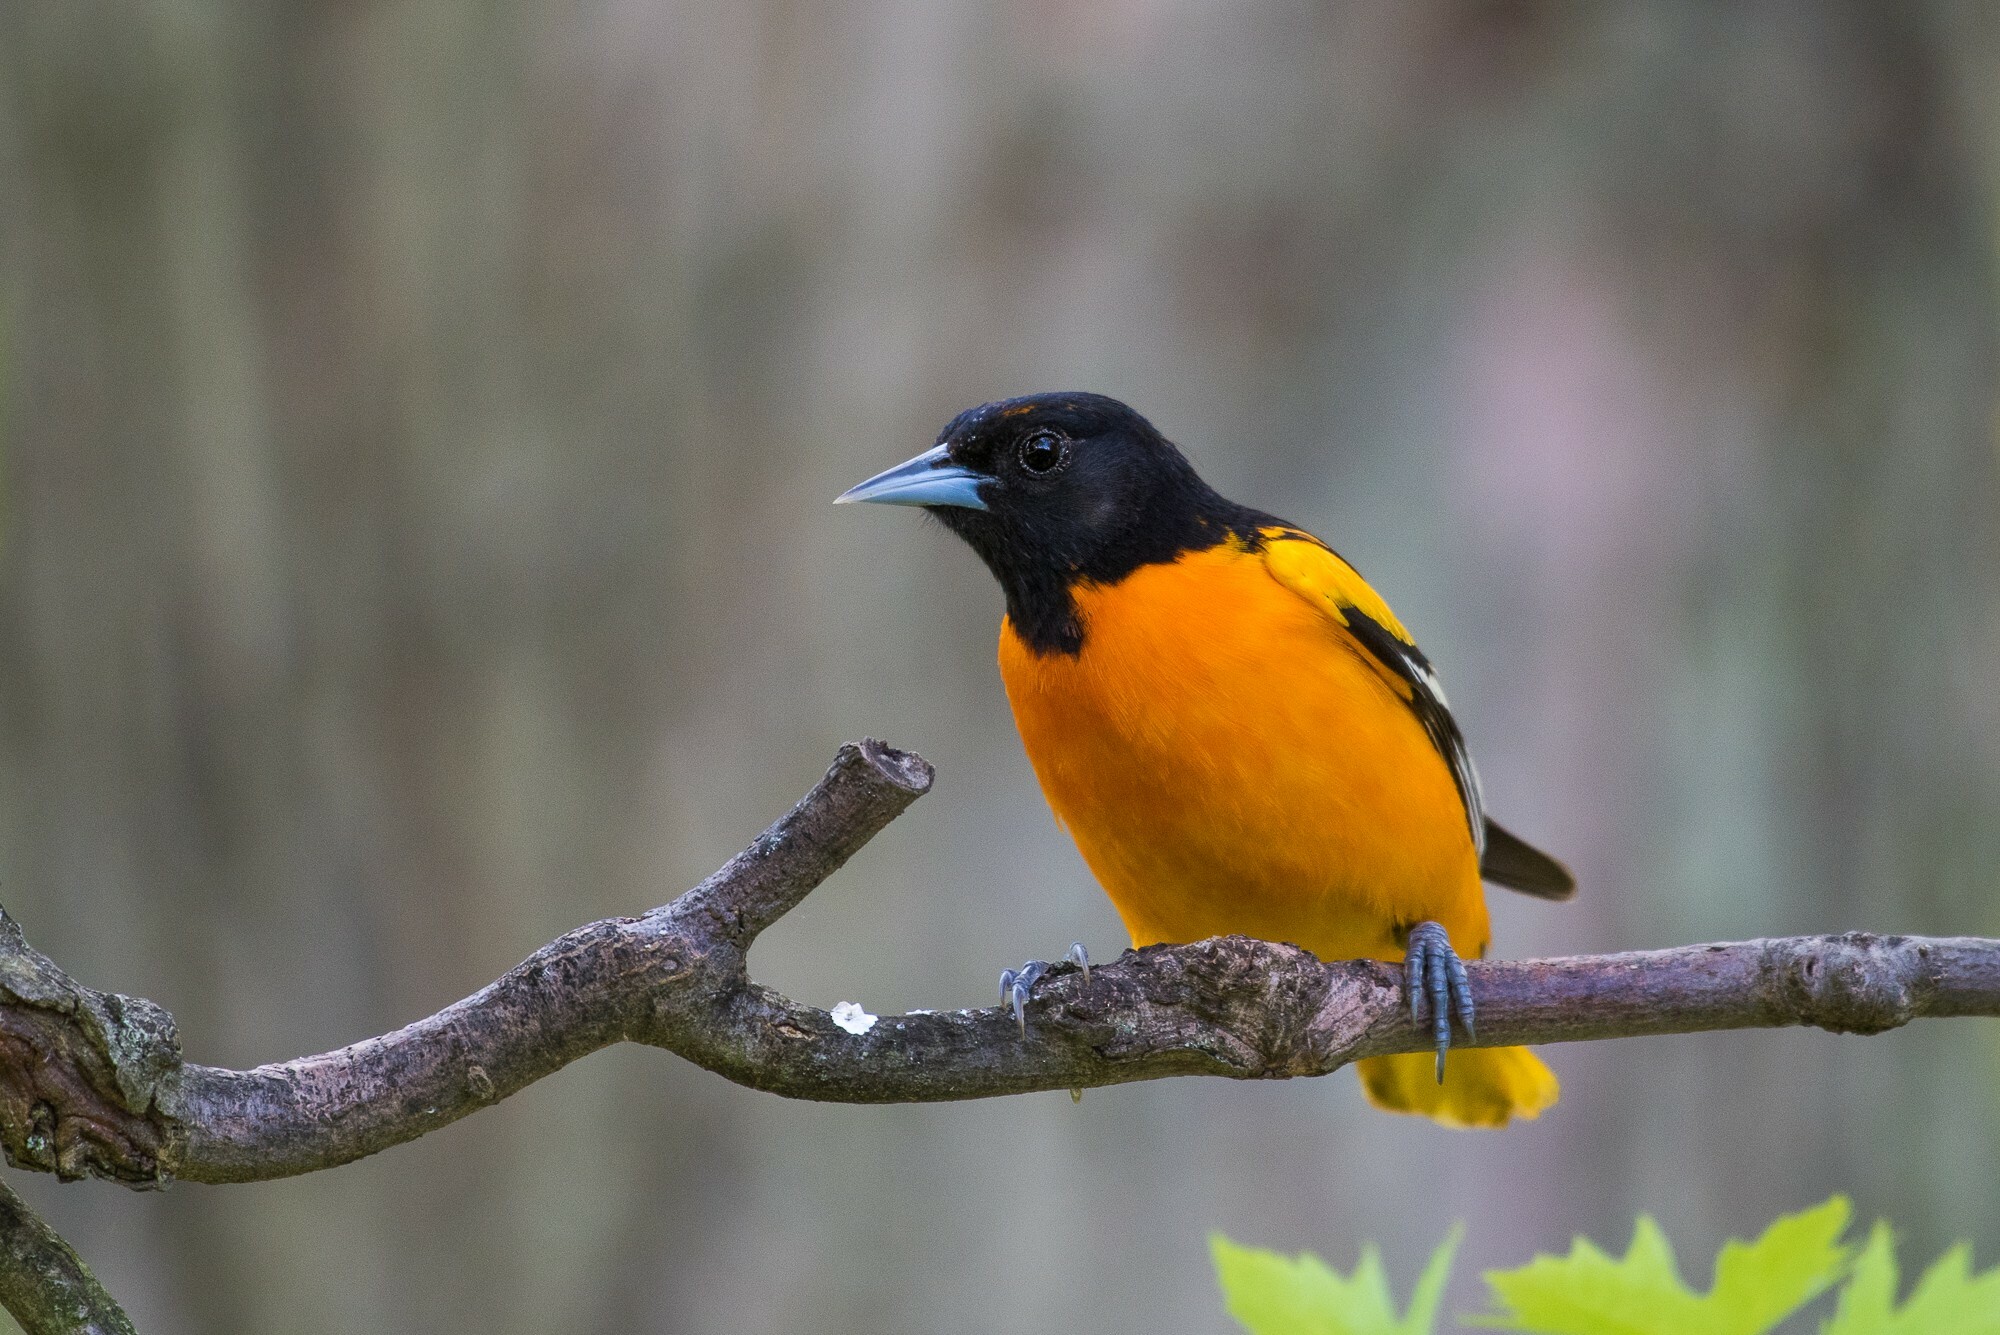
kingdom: Animalia
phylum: Chordata
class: Aves
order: Passeriformes
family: Icteridae
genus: Icterus
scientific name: Icterus galbula
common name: Baltimore oriole
